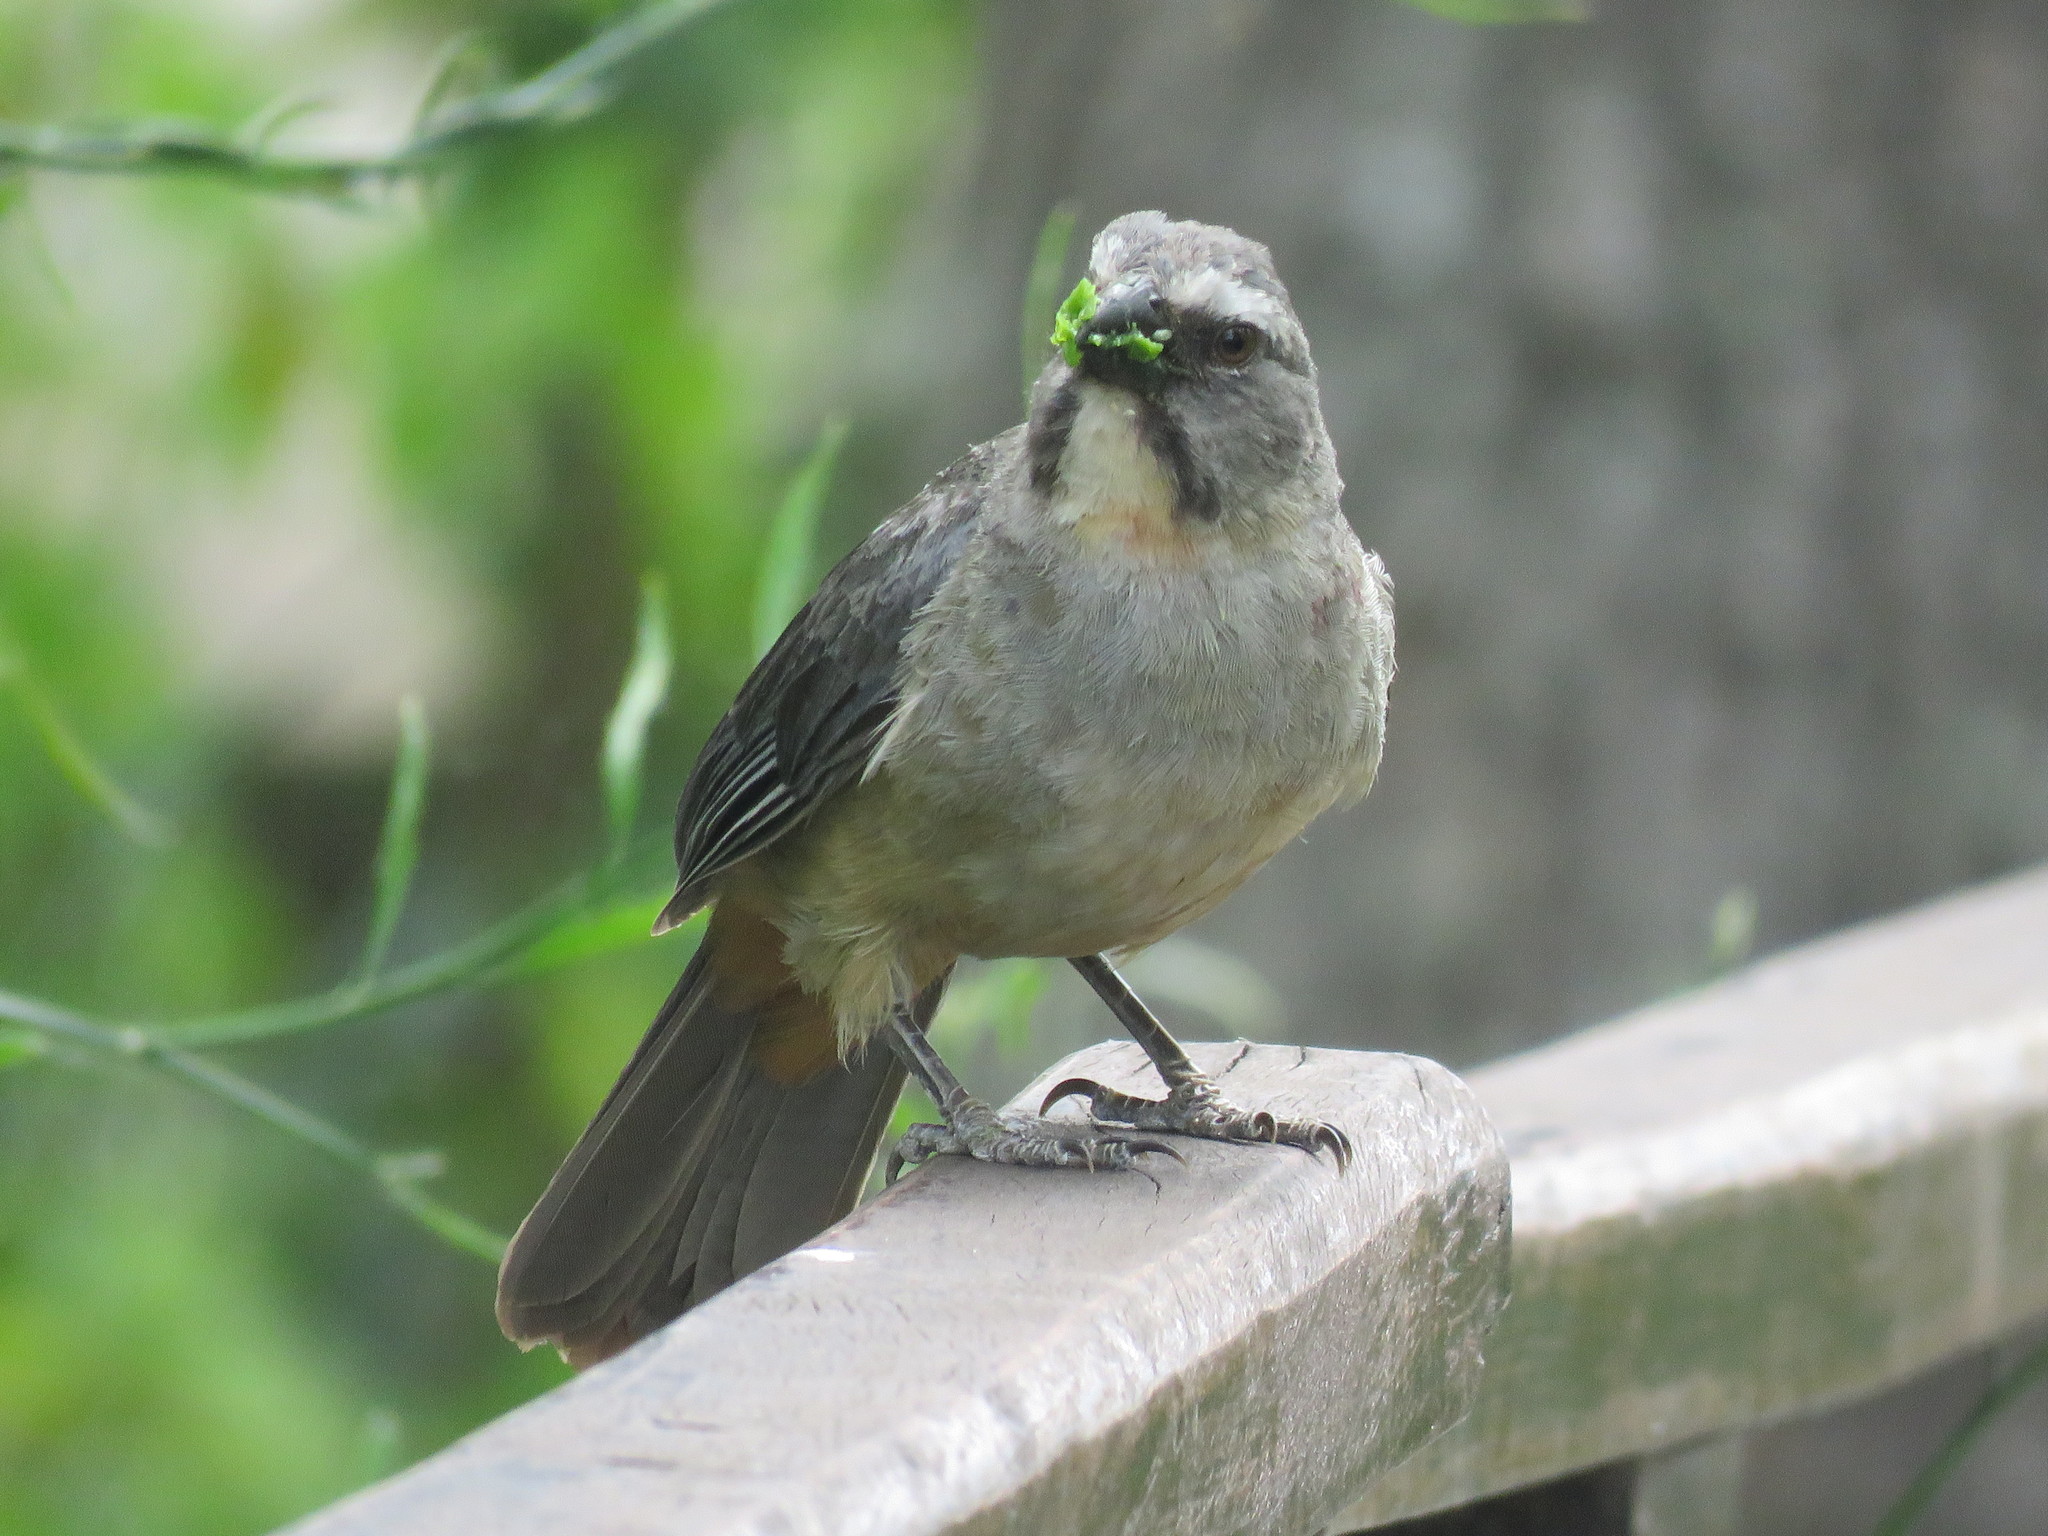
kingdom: Animalia
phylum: Chordata
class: Aves
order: Passeriformes
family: Thraupidae
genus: Saltator
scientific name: Saltator coerulescens
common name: Grayish saltator
